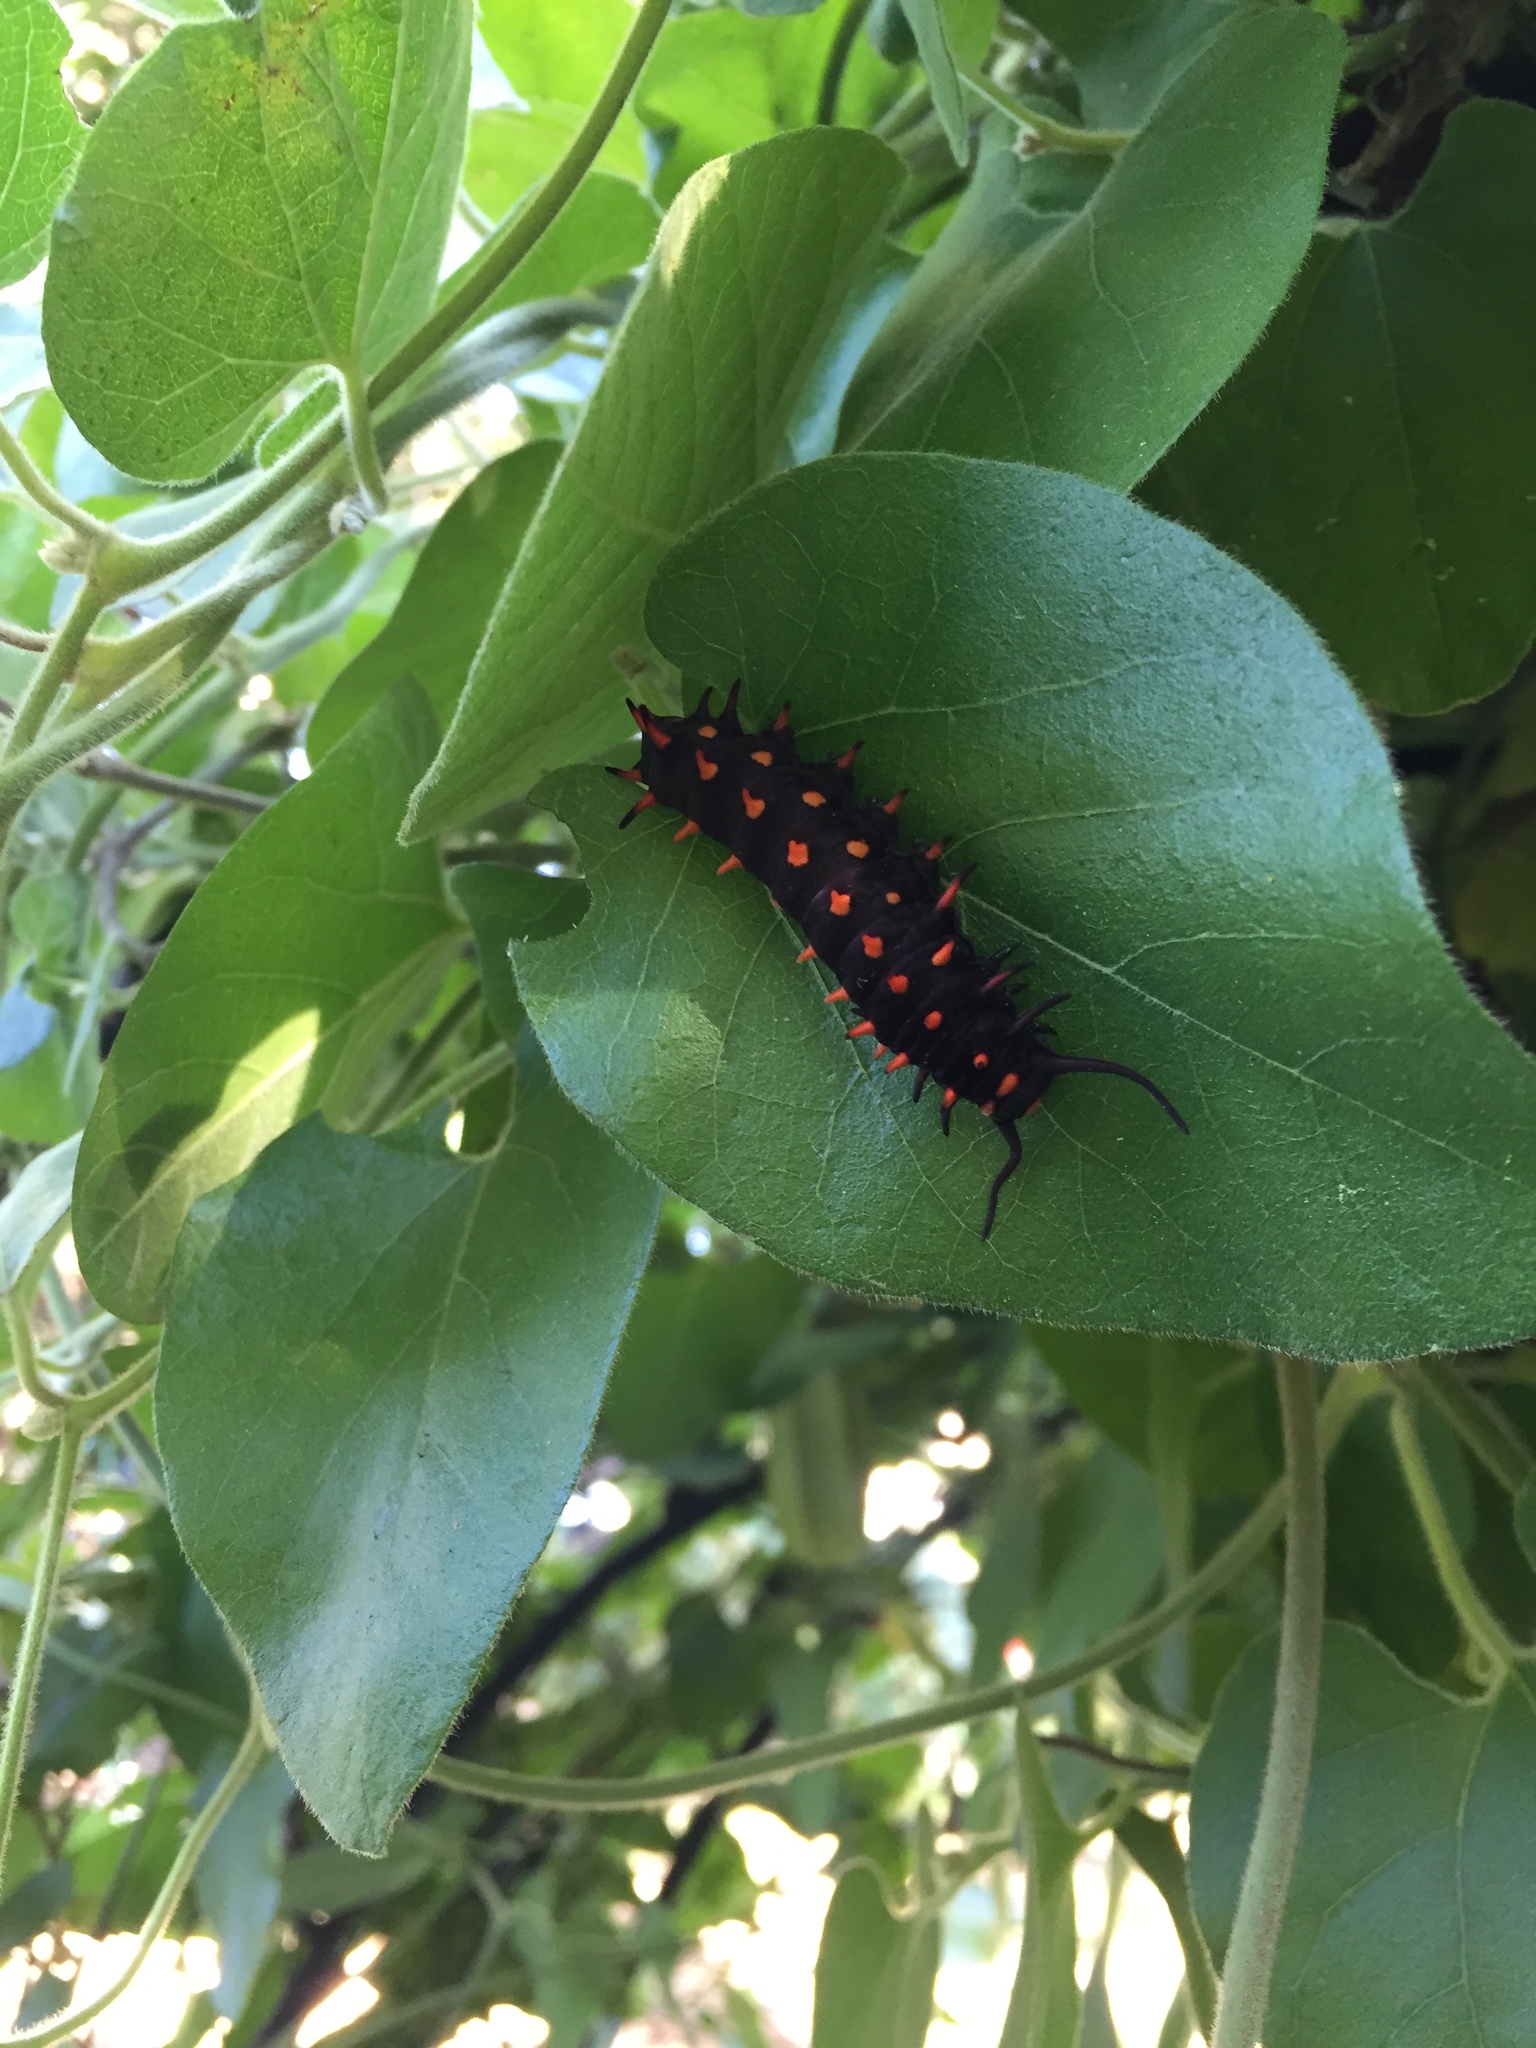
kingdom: Animalia
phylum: Arthropoda
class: Insecta
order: Lepidoptera
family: Papilionidae
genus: Battus
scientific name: Battus philenor
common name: Pipevine swallowtail
